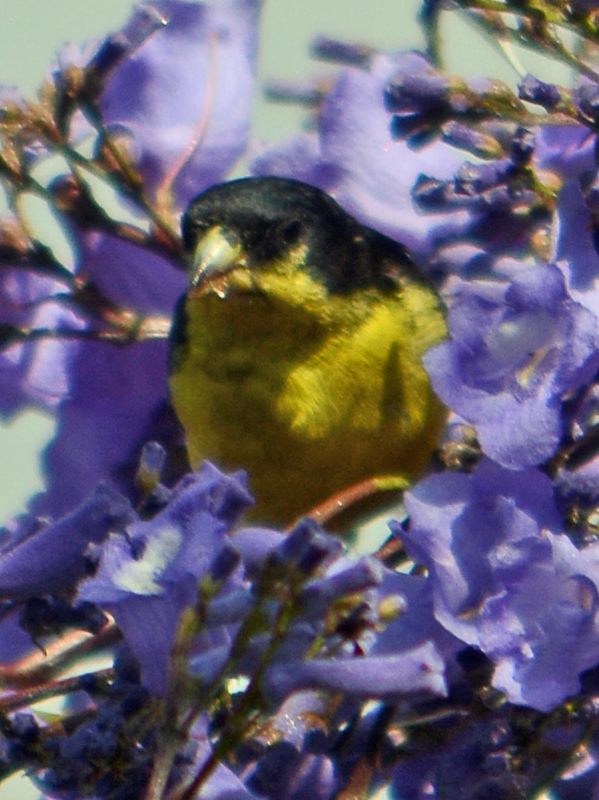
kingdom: Animalia
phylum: Chordata
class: Aves
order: Passeriformes
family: Fringillidae
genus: Spinus
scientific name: Spinus psaltria
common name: Lesser goldfinch
